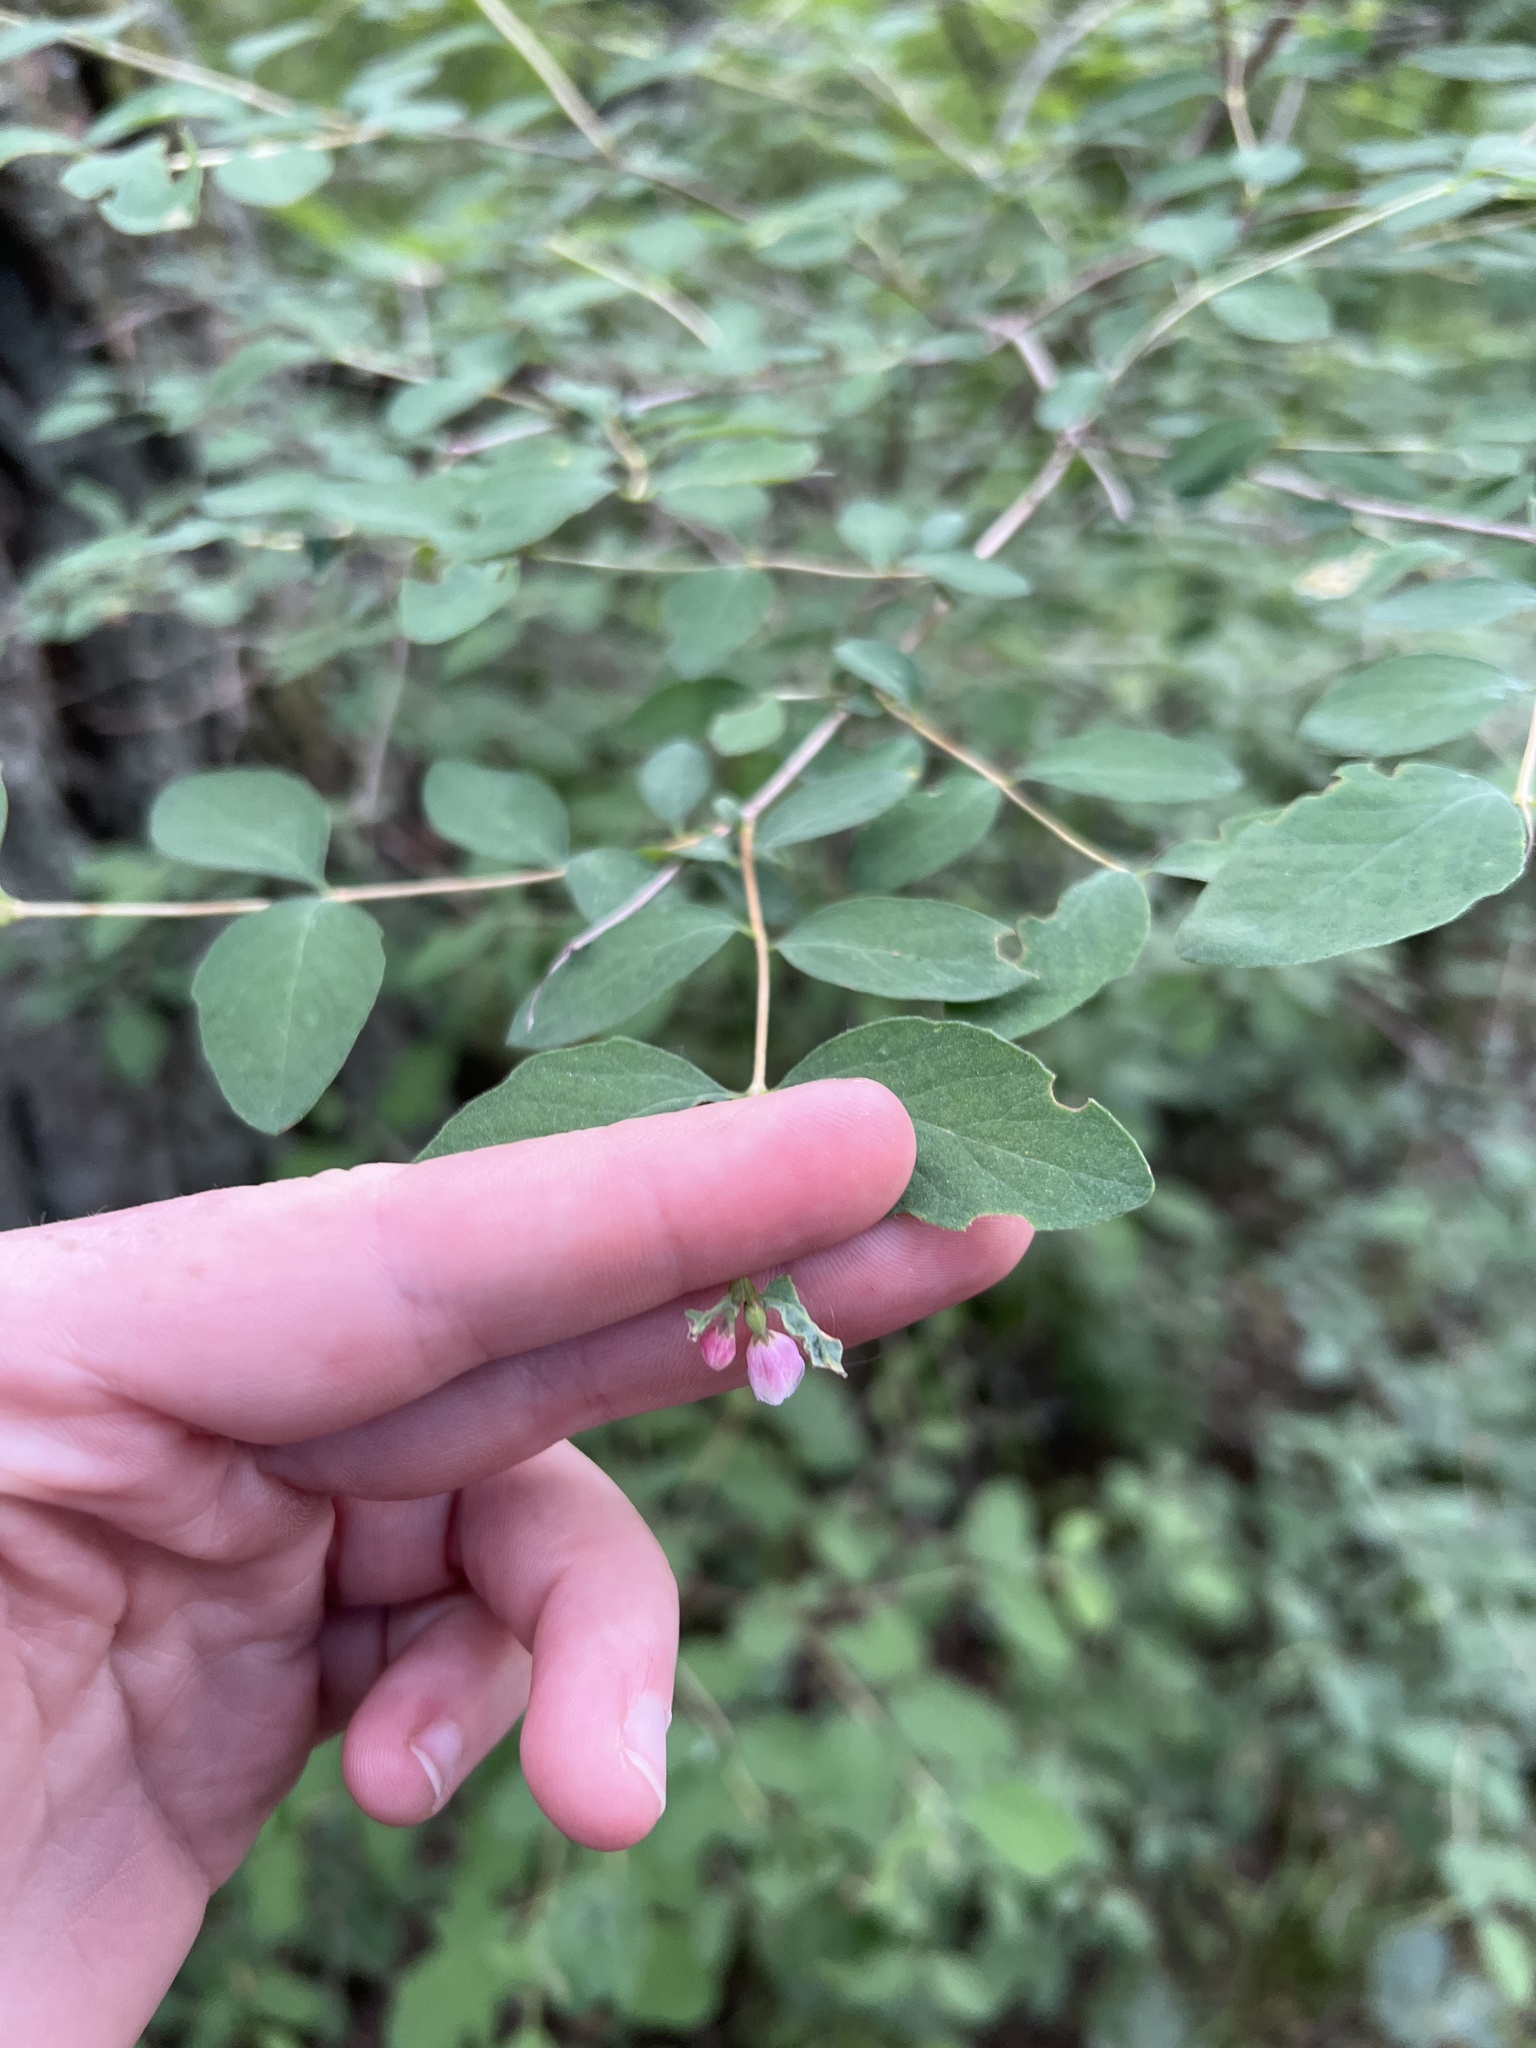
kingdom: Plantae
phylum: Tracheophyta
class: Magnoliopsida
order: Dipsacales
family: Caprifoliaceae
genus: Symphoricarpos
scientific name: Symphoricarpos albus
